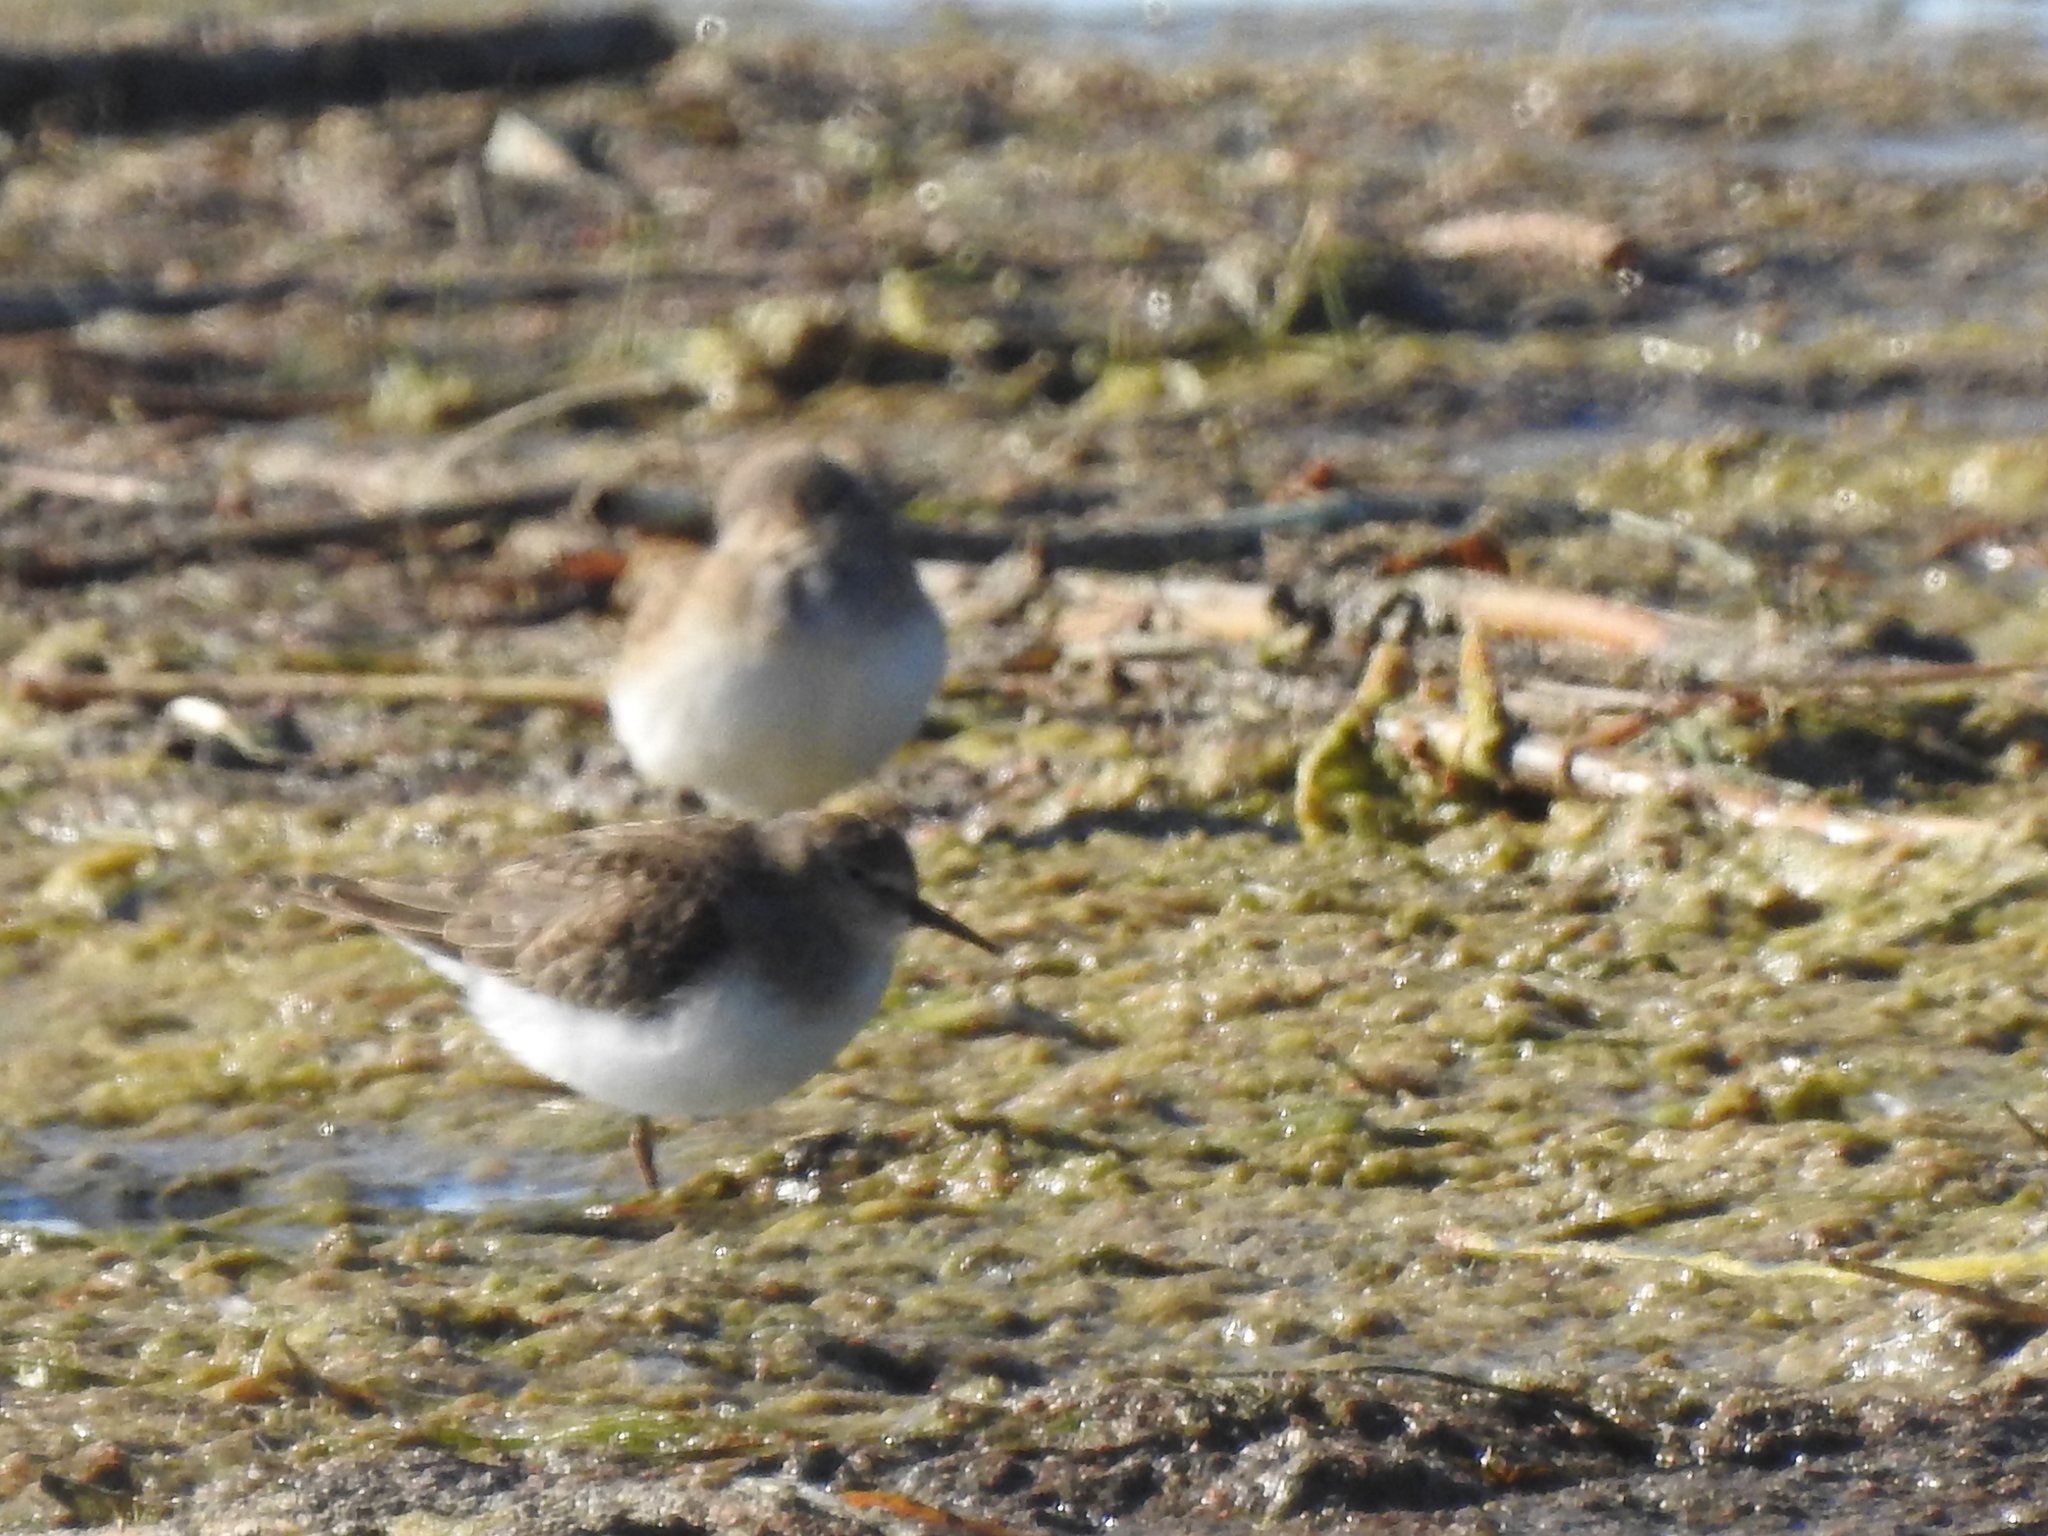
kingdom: Animalia
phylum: Chordata
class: Aves
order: Charadriiformes
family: Scolopacidae
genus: Calidris
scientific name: Calidris temminckii
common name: Temminck's stint
